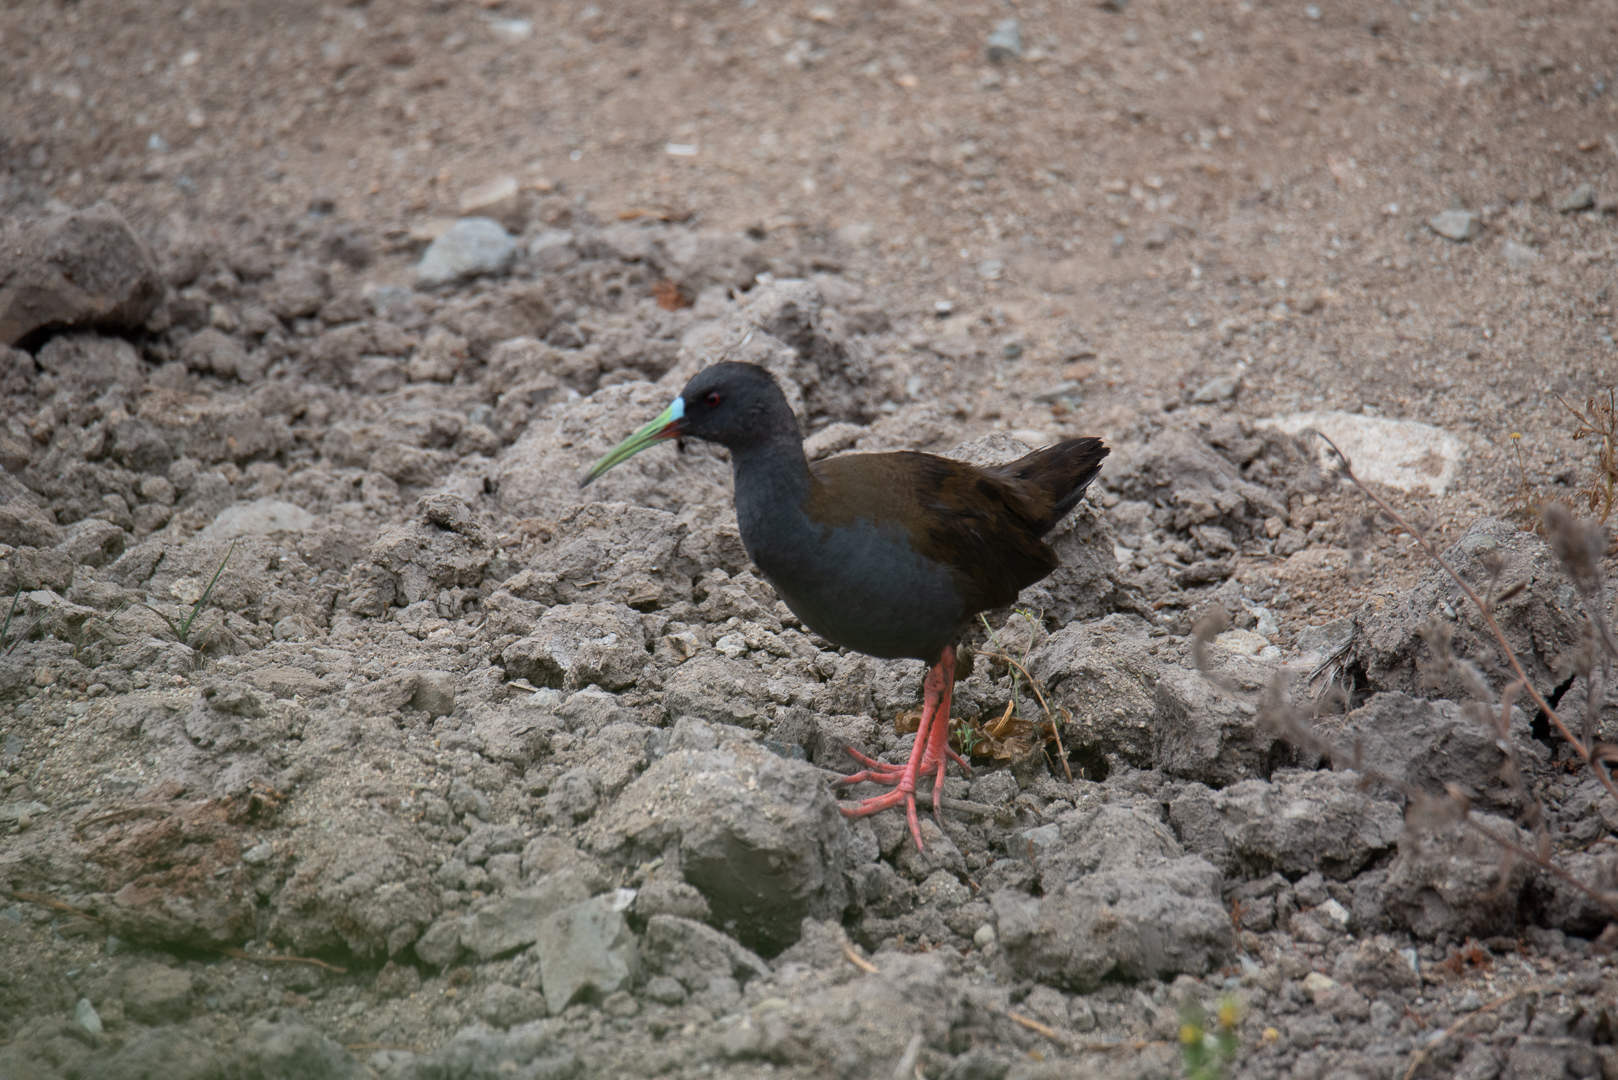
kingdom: Animalia
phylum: Chordata
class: Aves
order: Gruiformes
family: Rallidae
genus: Pardirallus
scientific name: Pardirallus sanguinolentus
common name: Plumbeous rail
